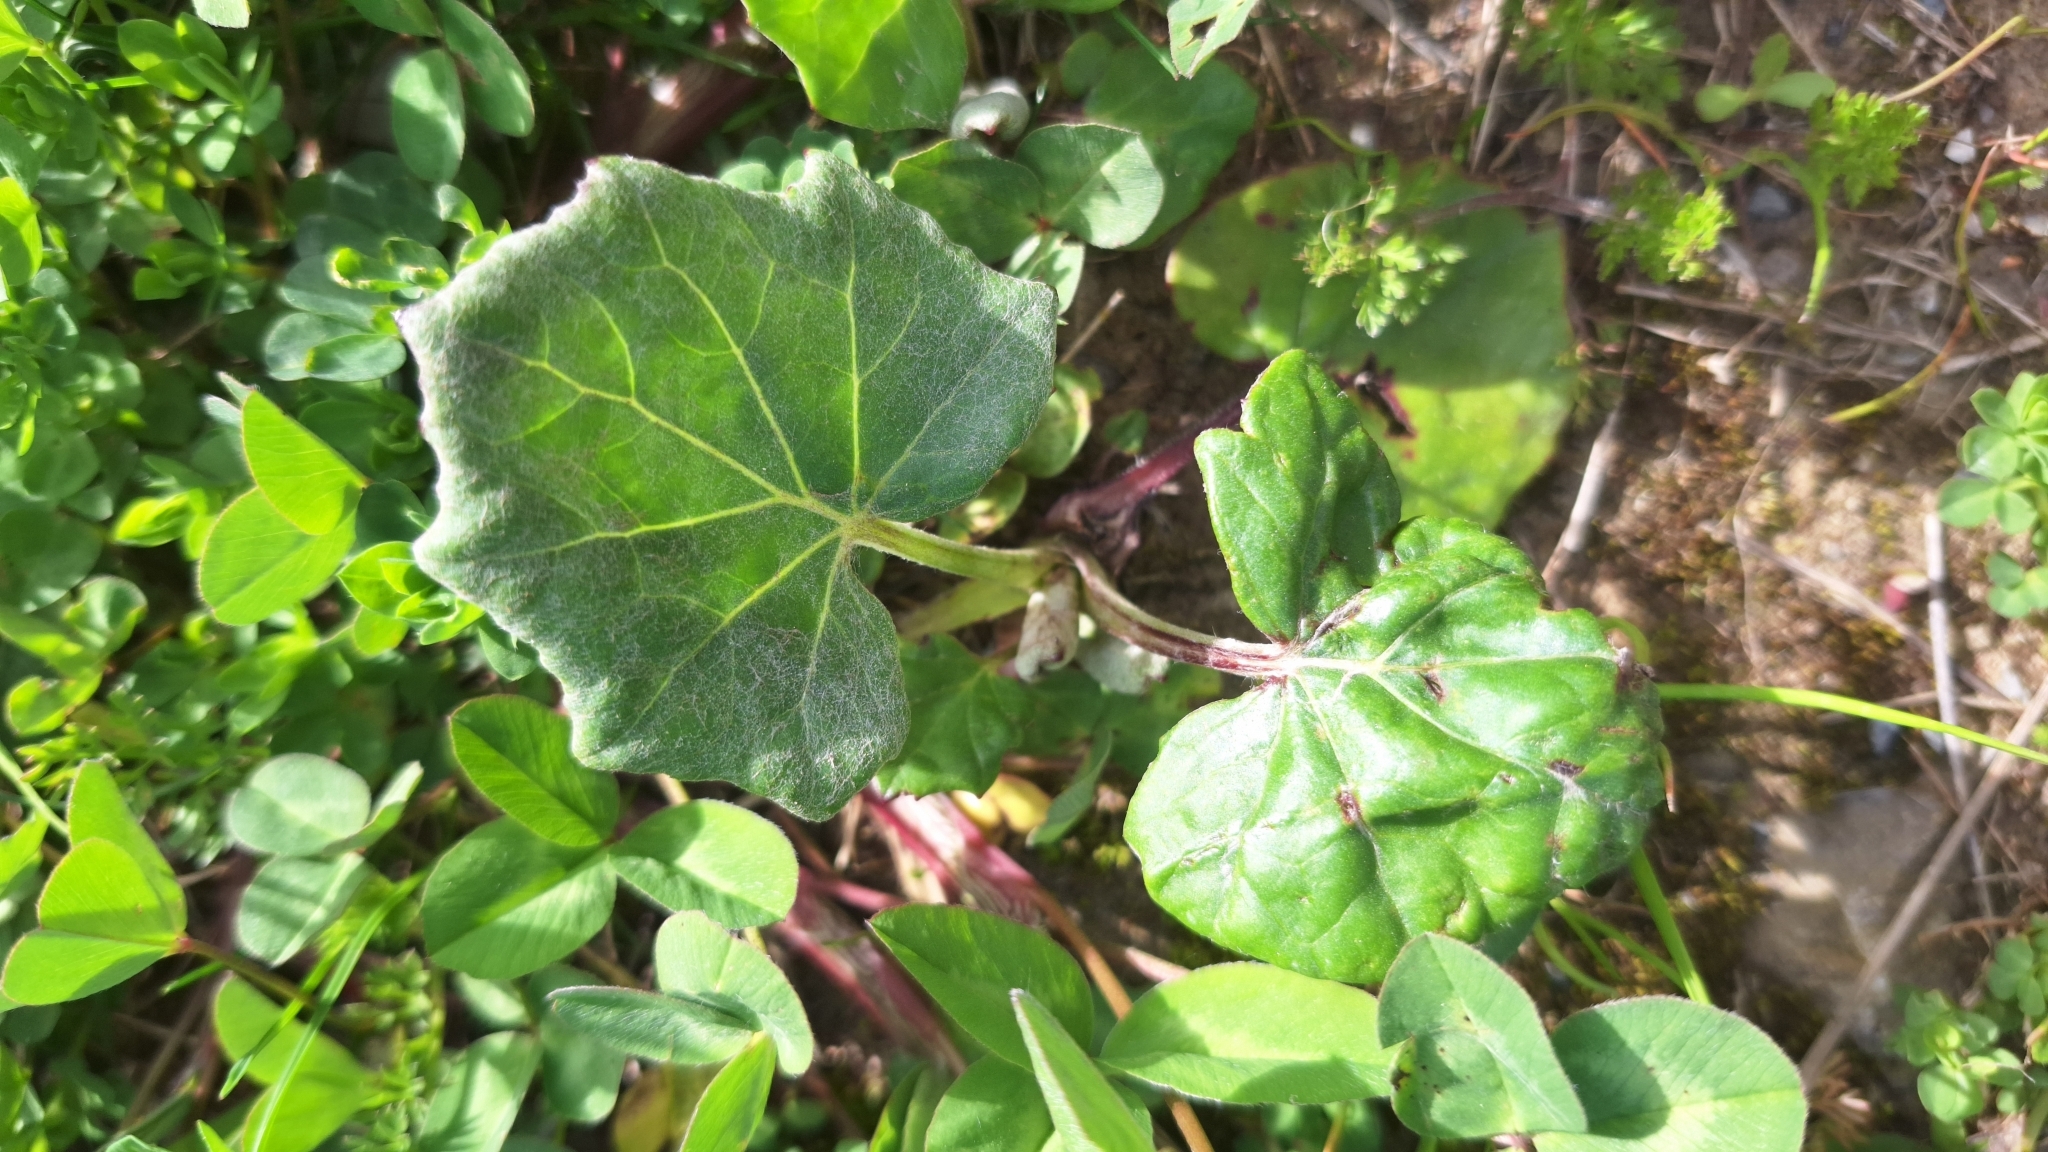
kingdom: Plantae
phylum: Tracheophyta
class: Magnoliopsida
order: Asterales
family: Asteraceae
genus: Tussilago
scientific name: Tussilago farfara
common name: Coltsfoot
